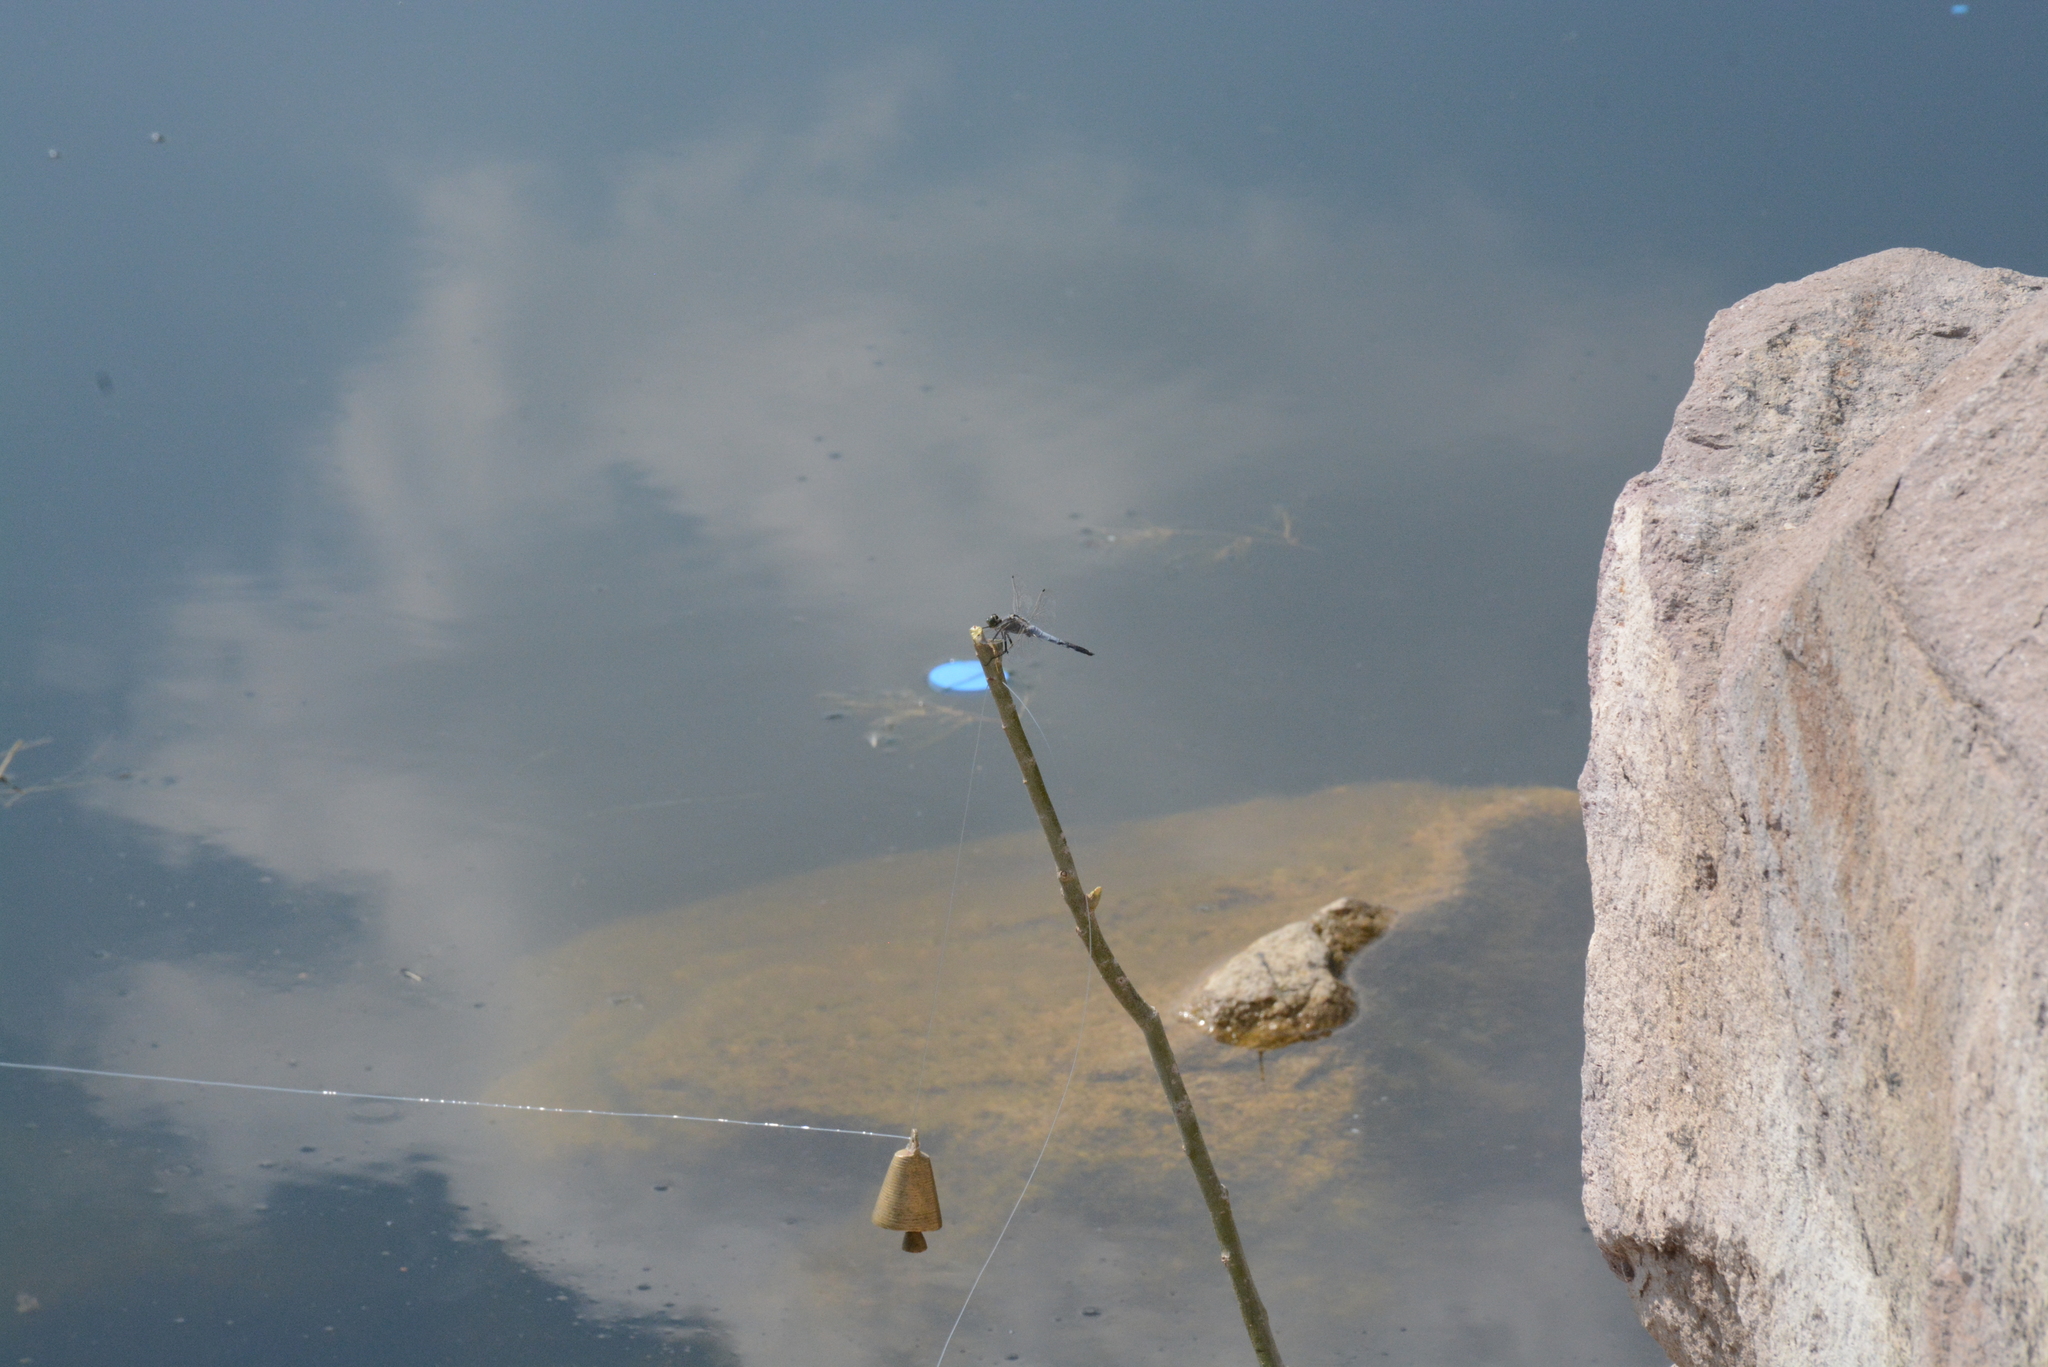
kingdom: Animalia
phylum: Arthropoda
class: Insecta
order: Odonata
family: Libellulidae
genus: Orthetrum
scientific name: Orthetrum cancellatum
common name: Black-tailed skimmer
